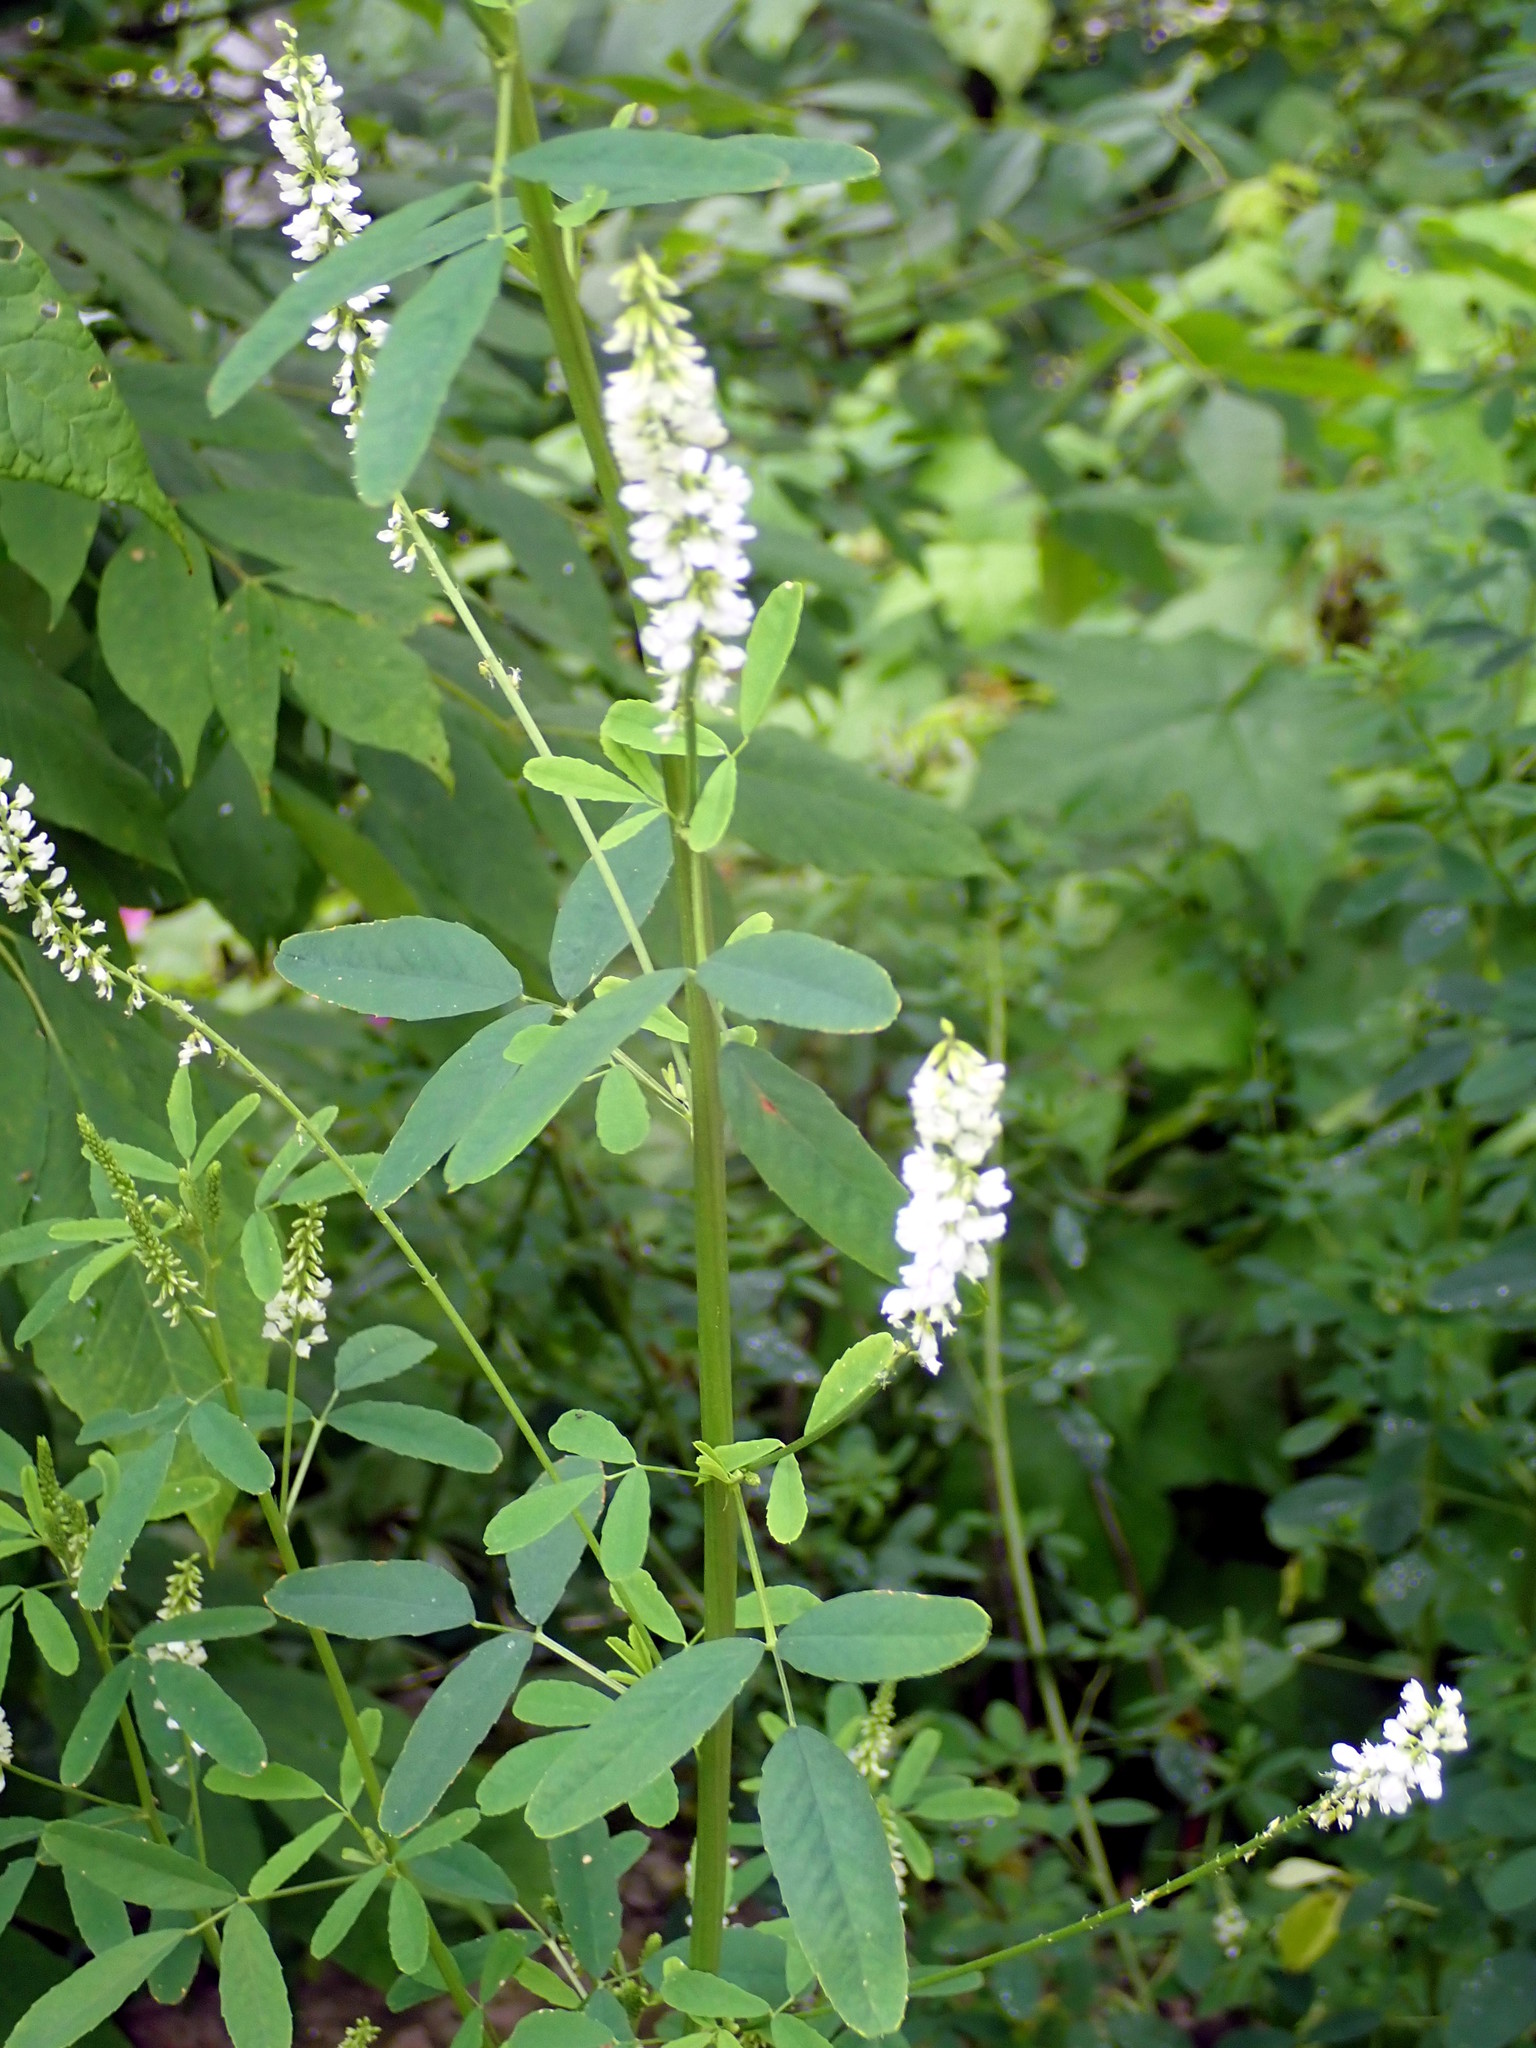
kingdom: Plantae
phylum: Tracheophyta
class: Magnoliopsida
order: Fabales
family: Fabaceae
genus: Melilotus
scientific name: Melilotus albus
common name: White melilot
